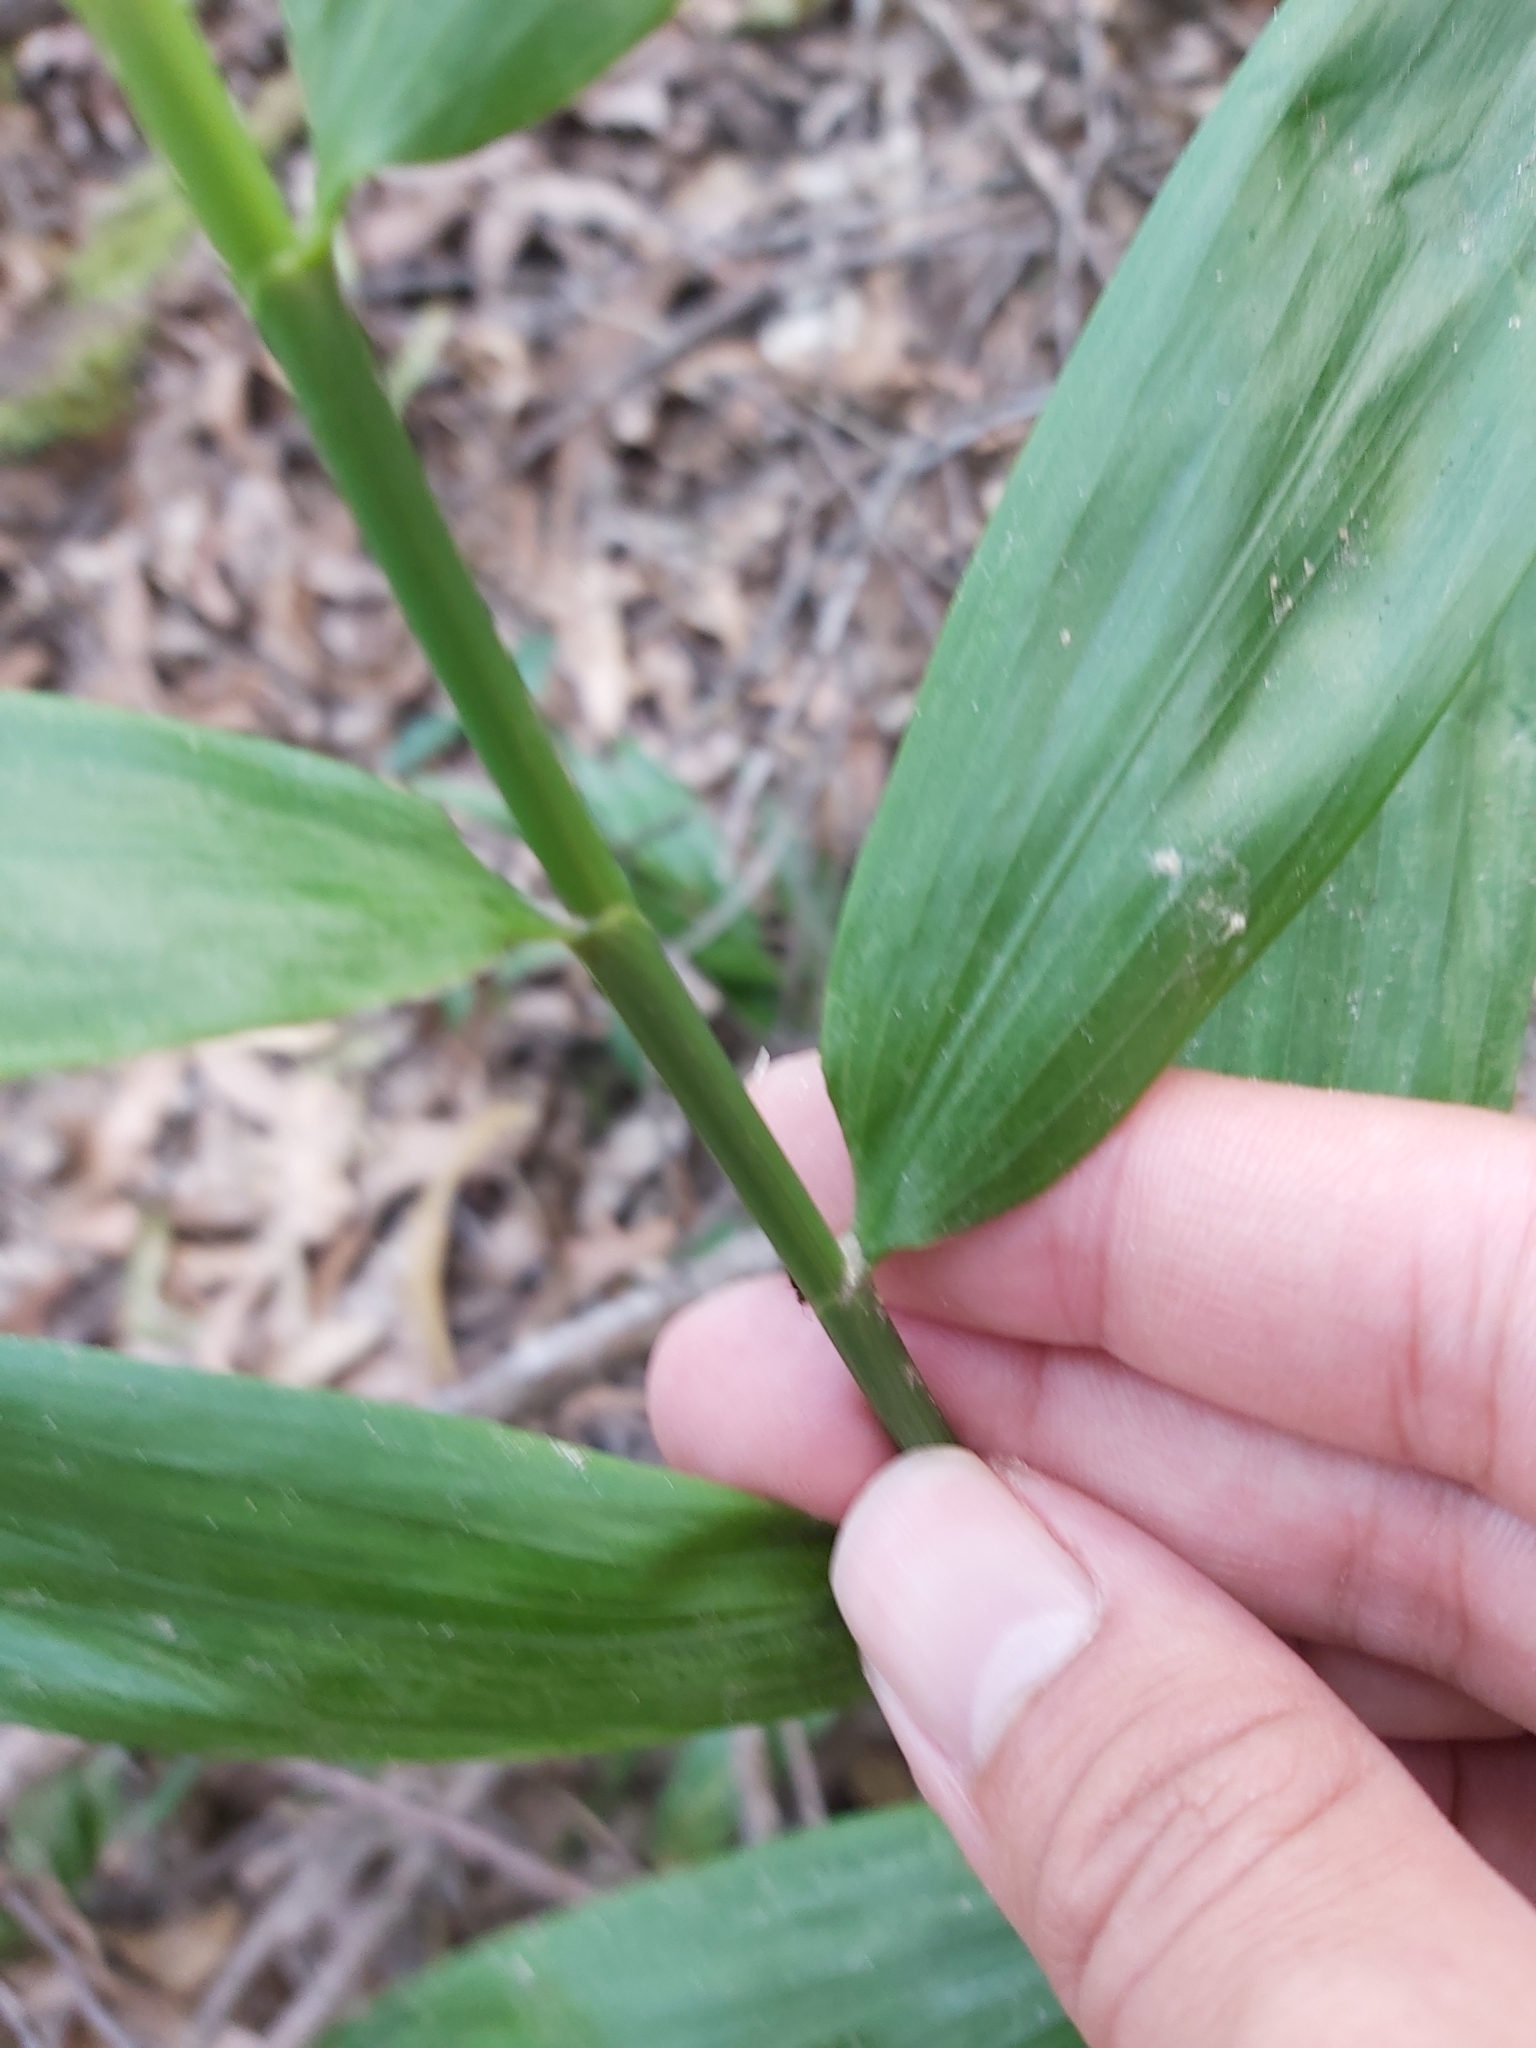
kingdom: Plantae
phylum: Tracheophyta
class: Liliopsida
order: Poales
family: Flagellariaceae
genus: Flagellaria
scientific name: Flagellaria indica
